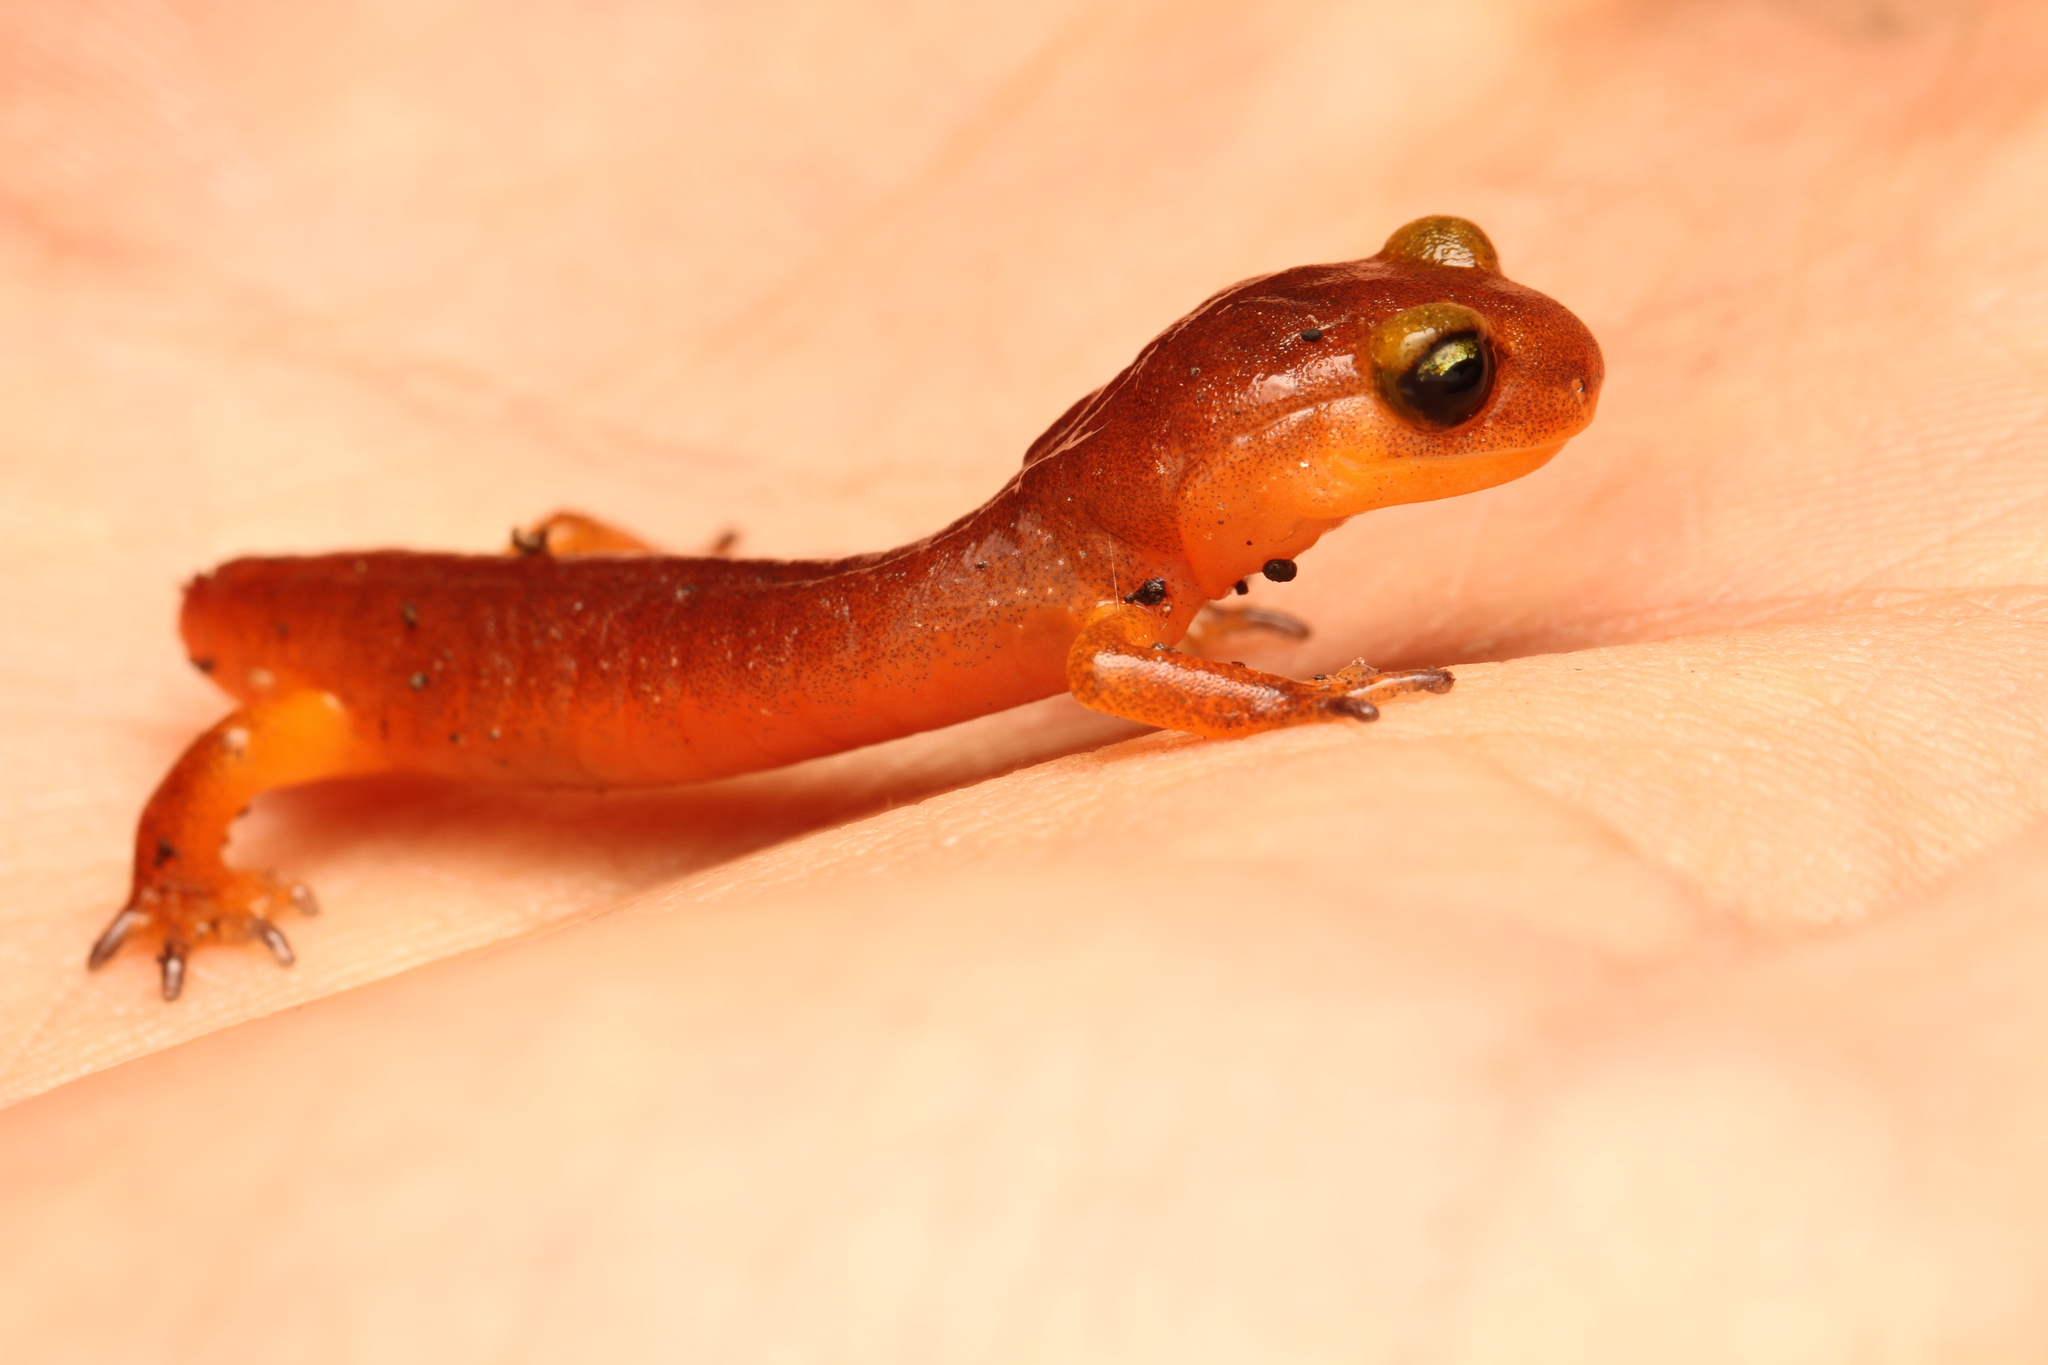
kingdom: Animalia
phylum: Chordata
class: Amphibia
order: Caudata
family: Plethodontidae
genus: Ensatina
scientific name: Ensatina eschscholtzii
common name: Ensatina
